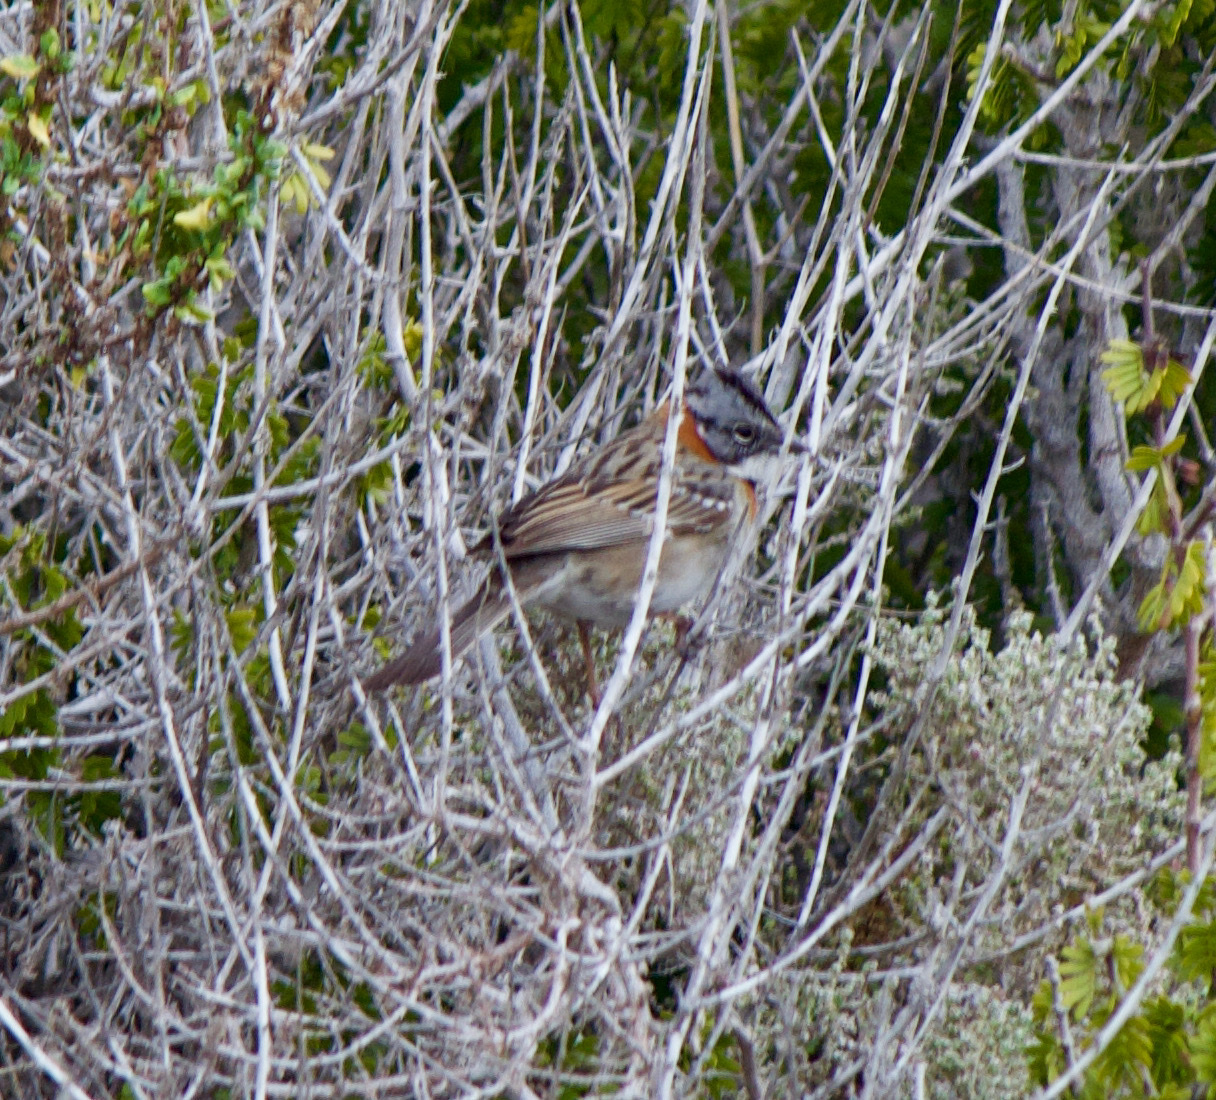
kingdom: Animalia
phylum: Chordata
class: Aves
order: Passeriformes
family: Passerellidae
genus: Zonotrichia
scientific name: Zonotrichia capensis
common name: Rufous-collared sparrow
